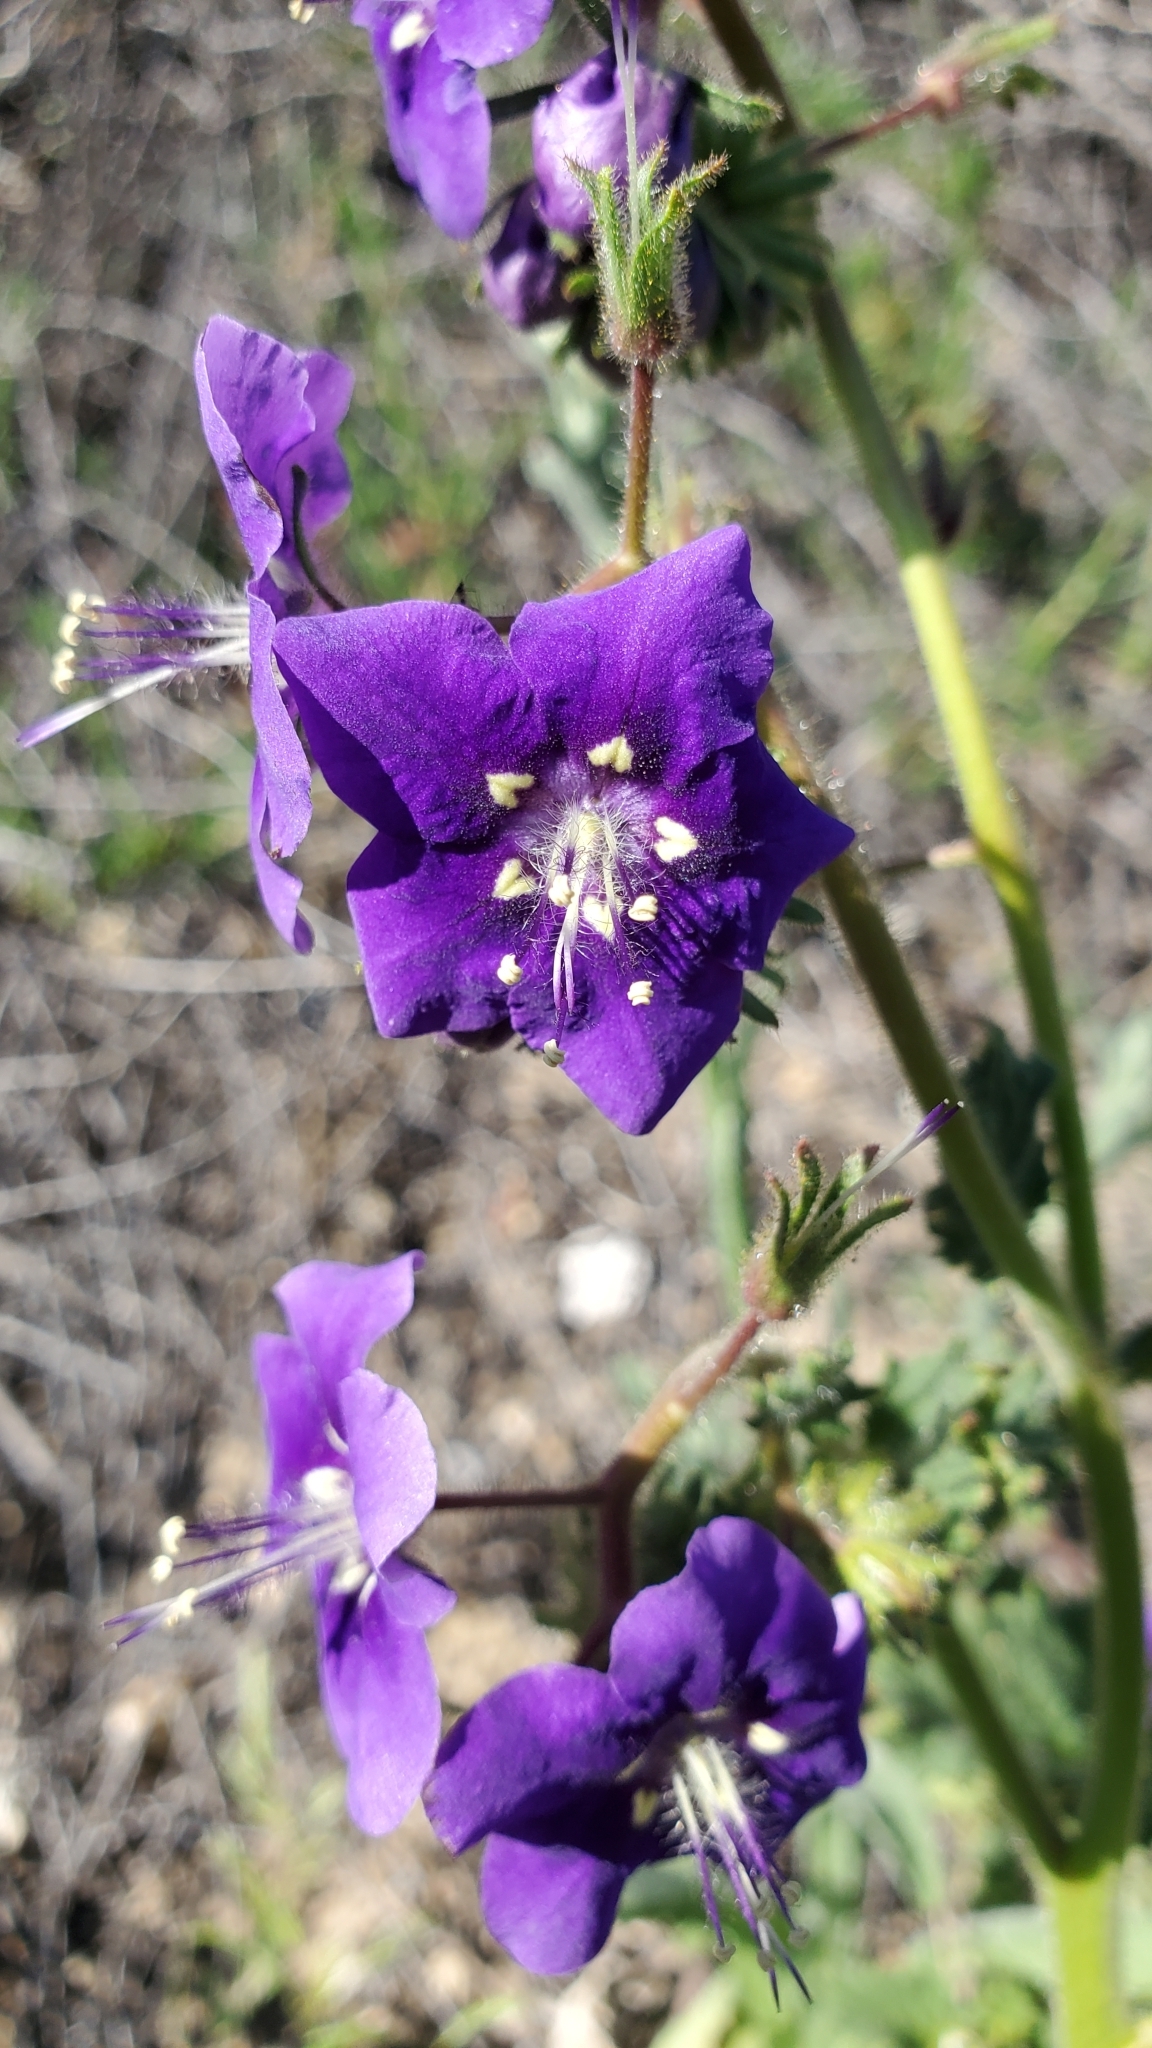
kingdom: Plantae
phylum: Tracheophyta
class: Magnoliopsida
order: Boraginales
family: Hydrophyllaceae
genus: Phacelia
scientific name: Phacelia parryi
